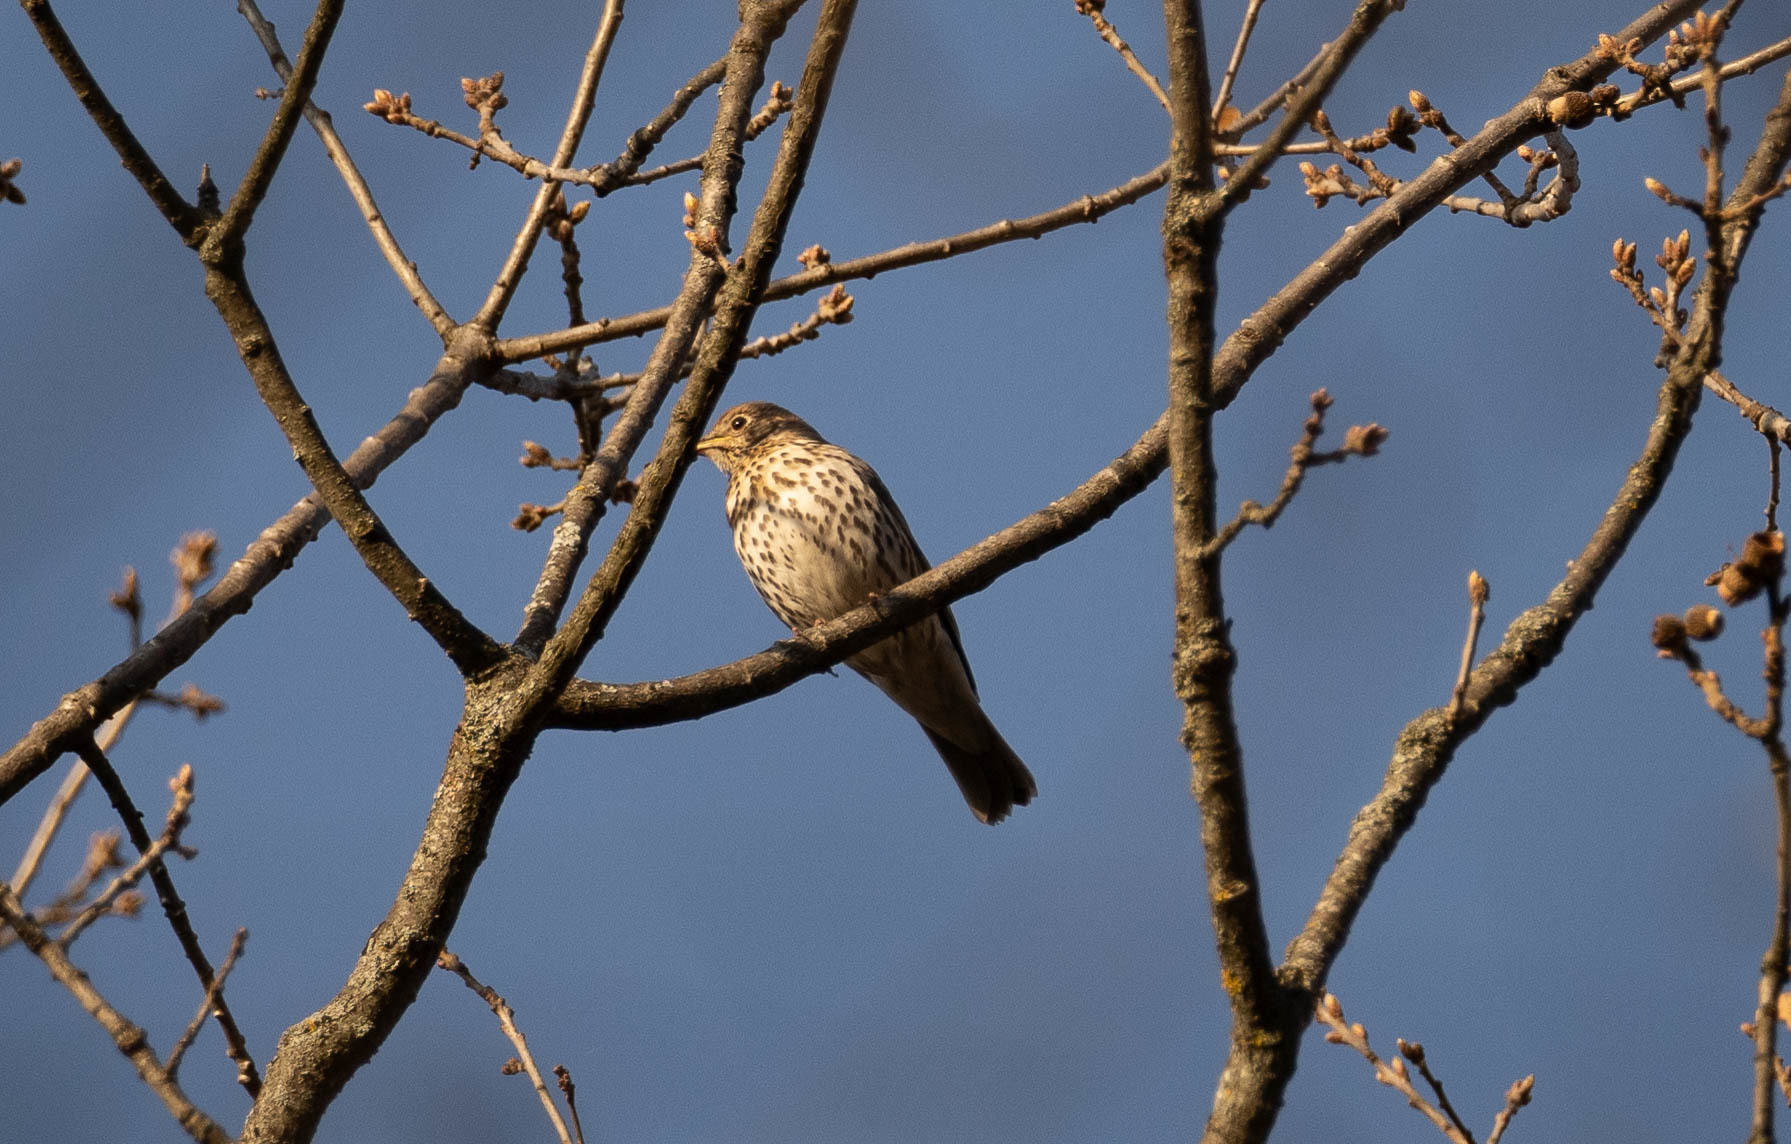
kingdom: Animalia
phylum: Chordata
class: Aves
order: Passeriformes
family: Turdidae
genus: Turdus
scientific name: Turdus philomelos
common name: Song thrush
